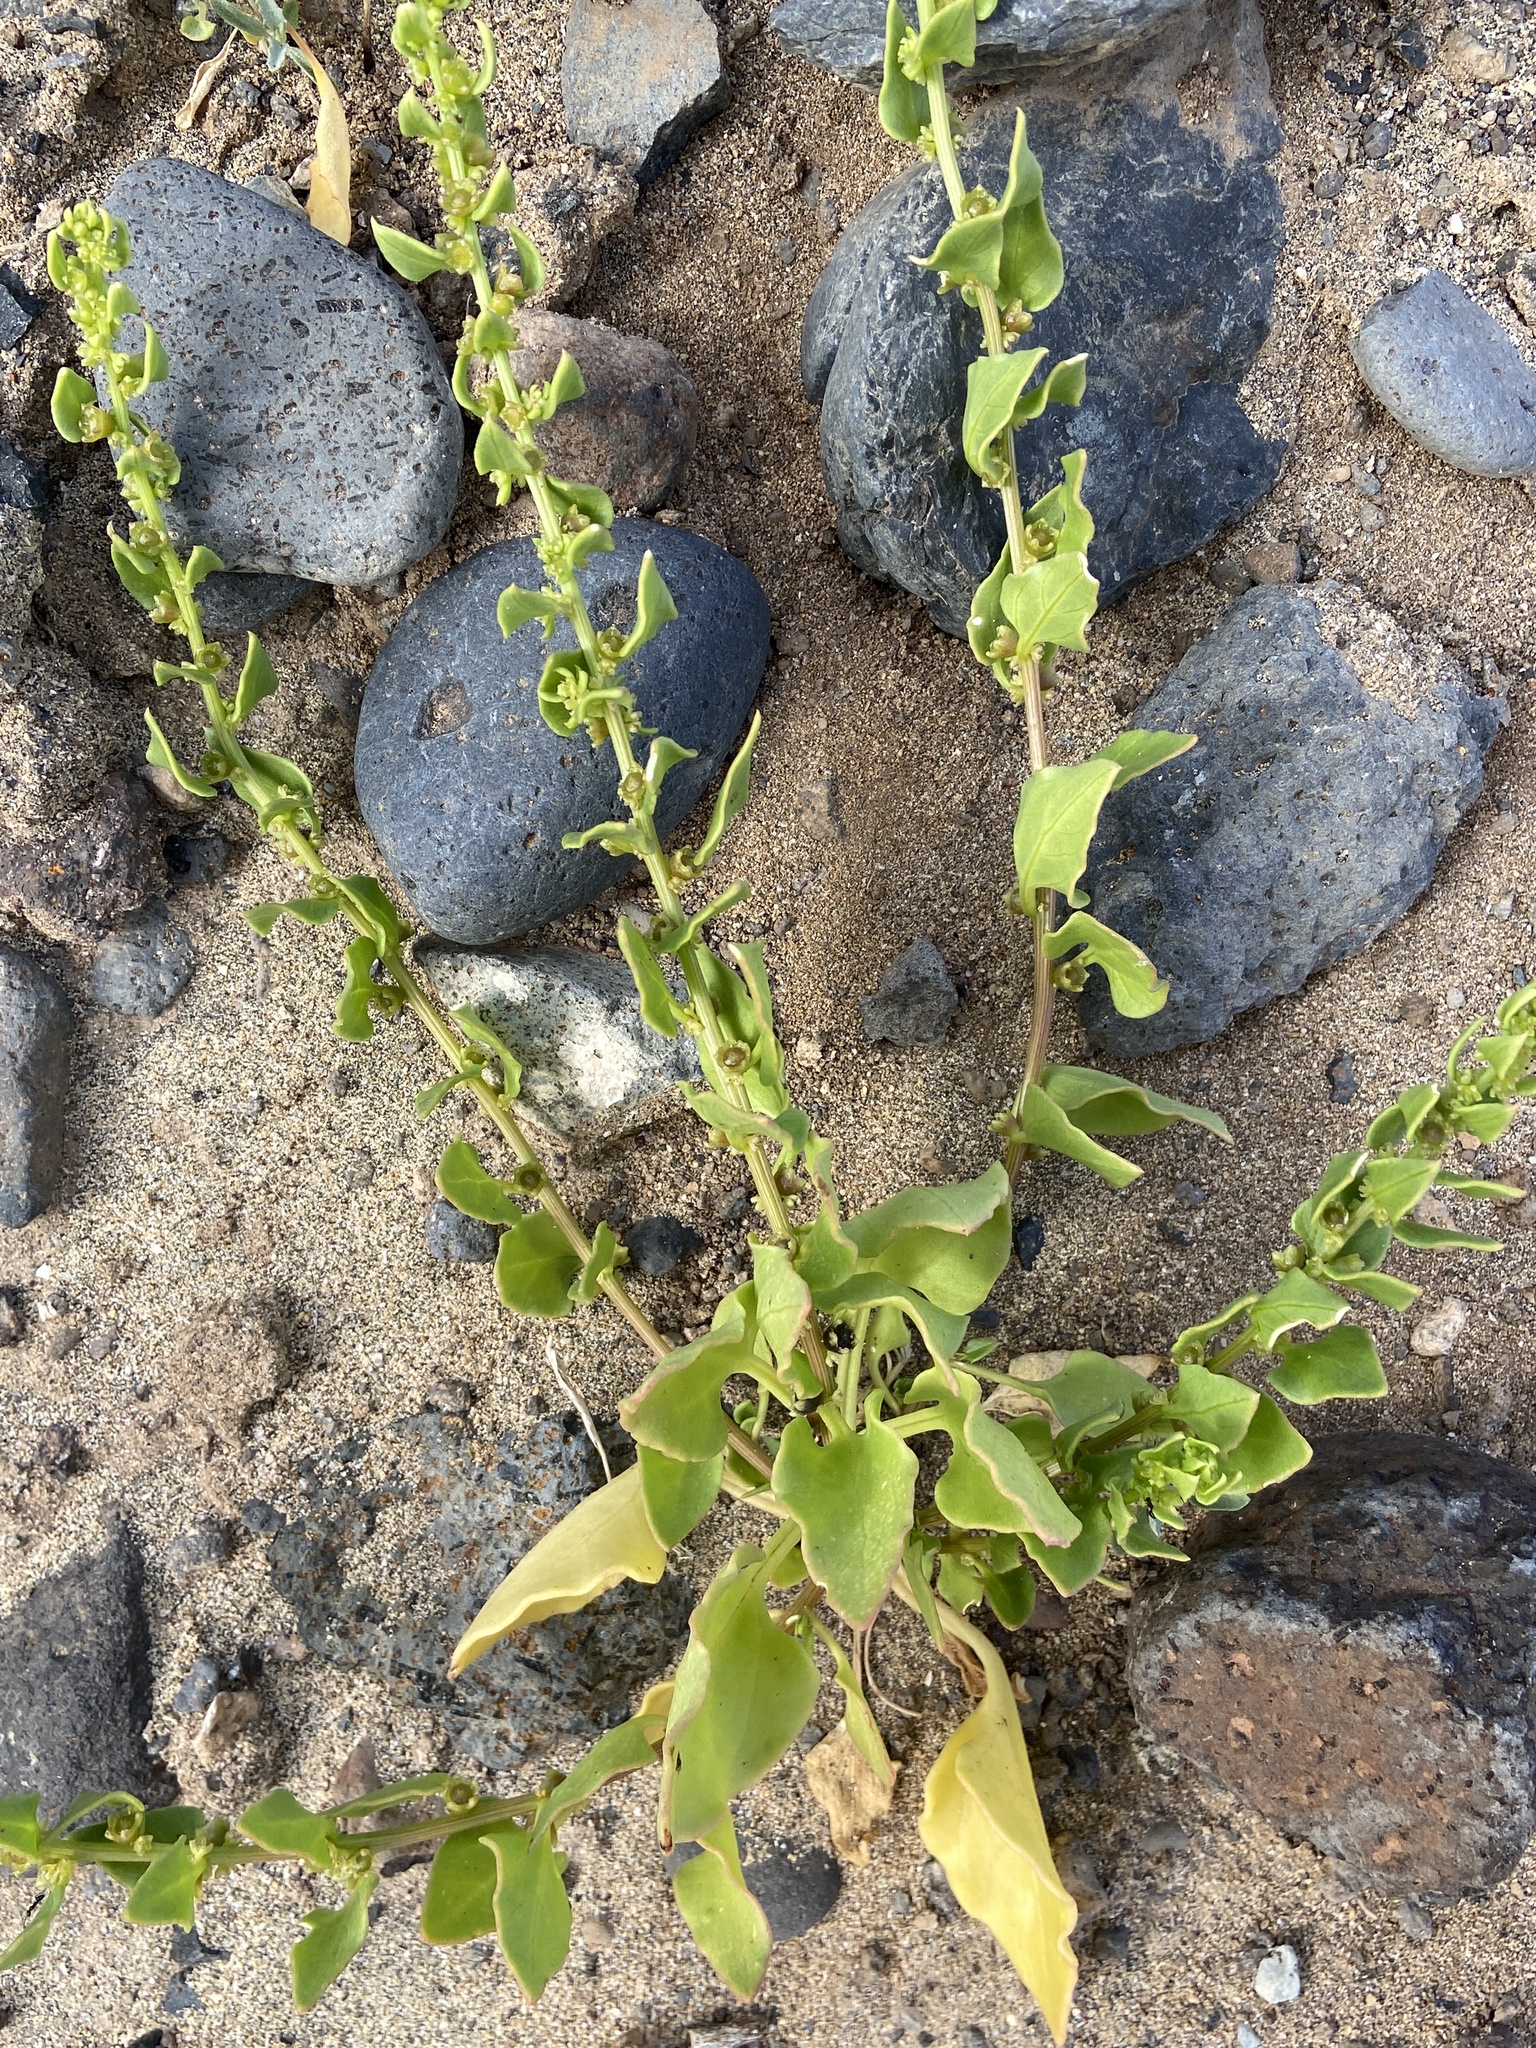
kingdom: Plantae
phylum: Tracheophyta
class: Magnoliopsida
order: Caryophyllales
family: Amaranthaceae
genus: Patellifolia
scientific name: Patellifolia procumbens
